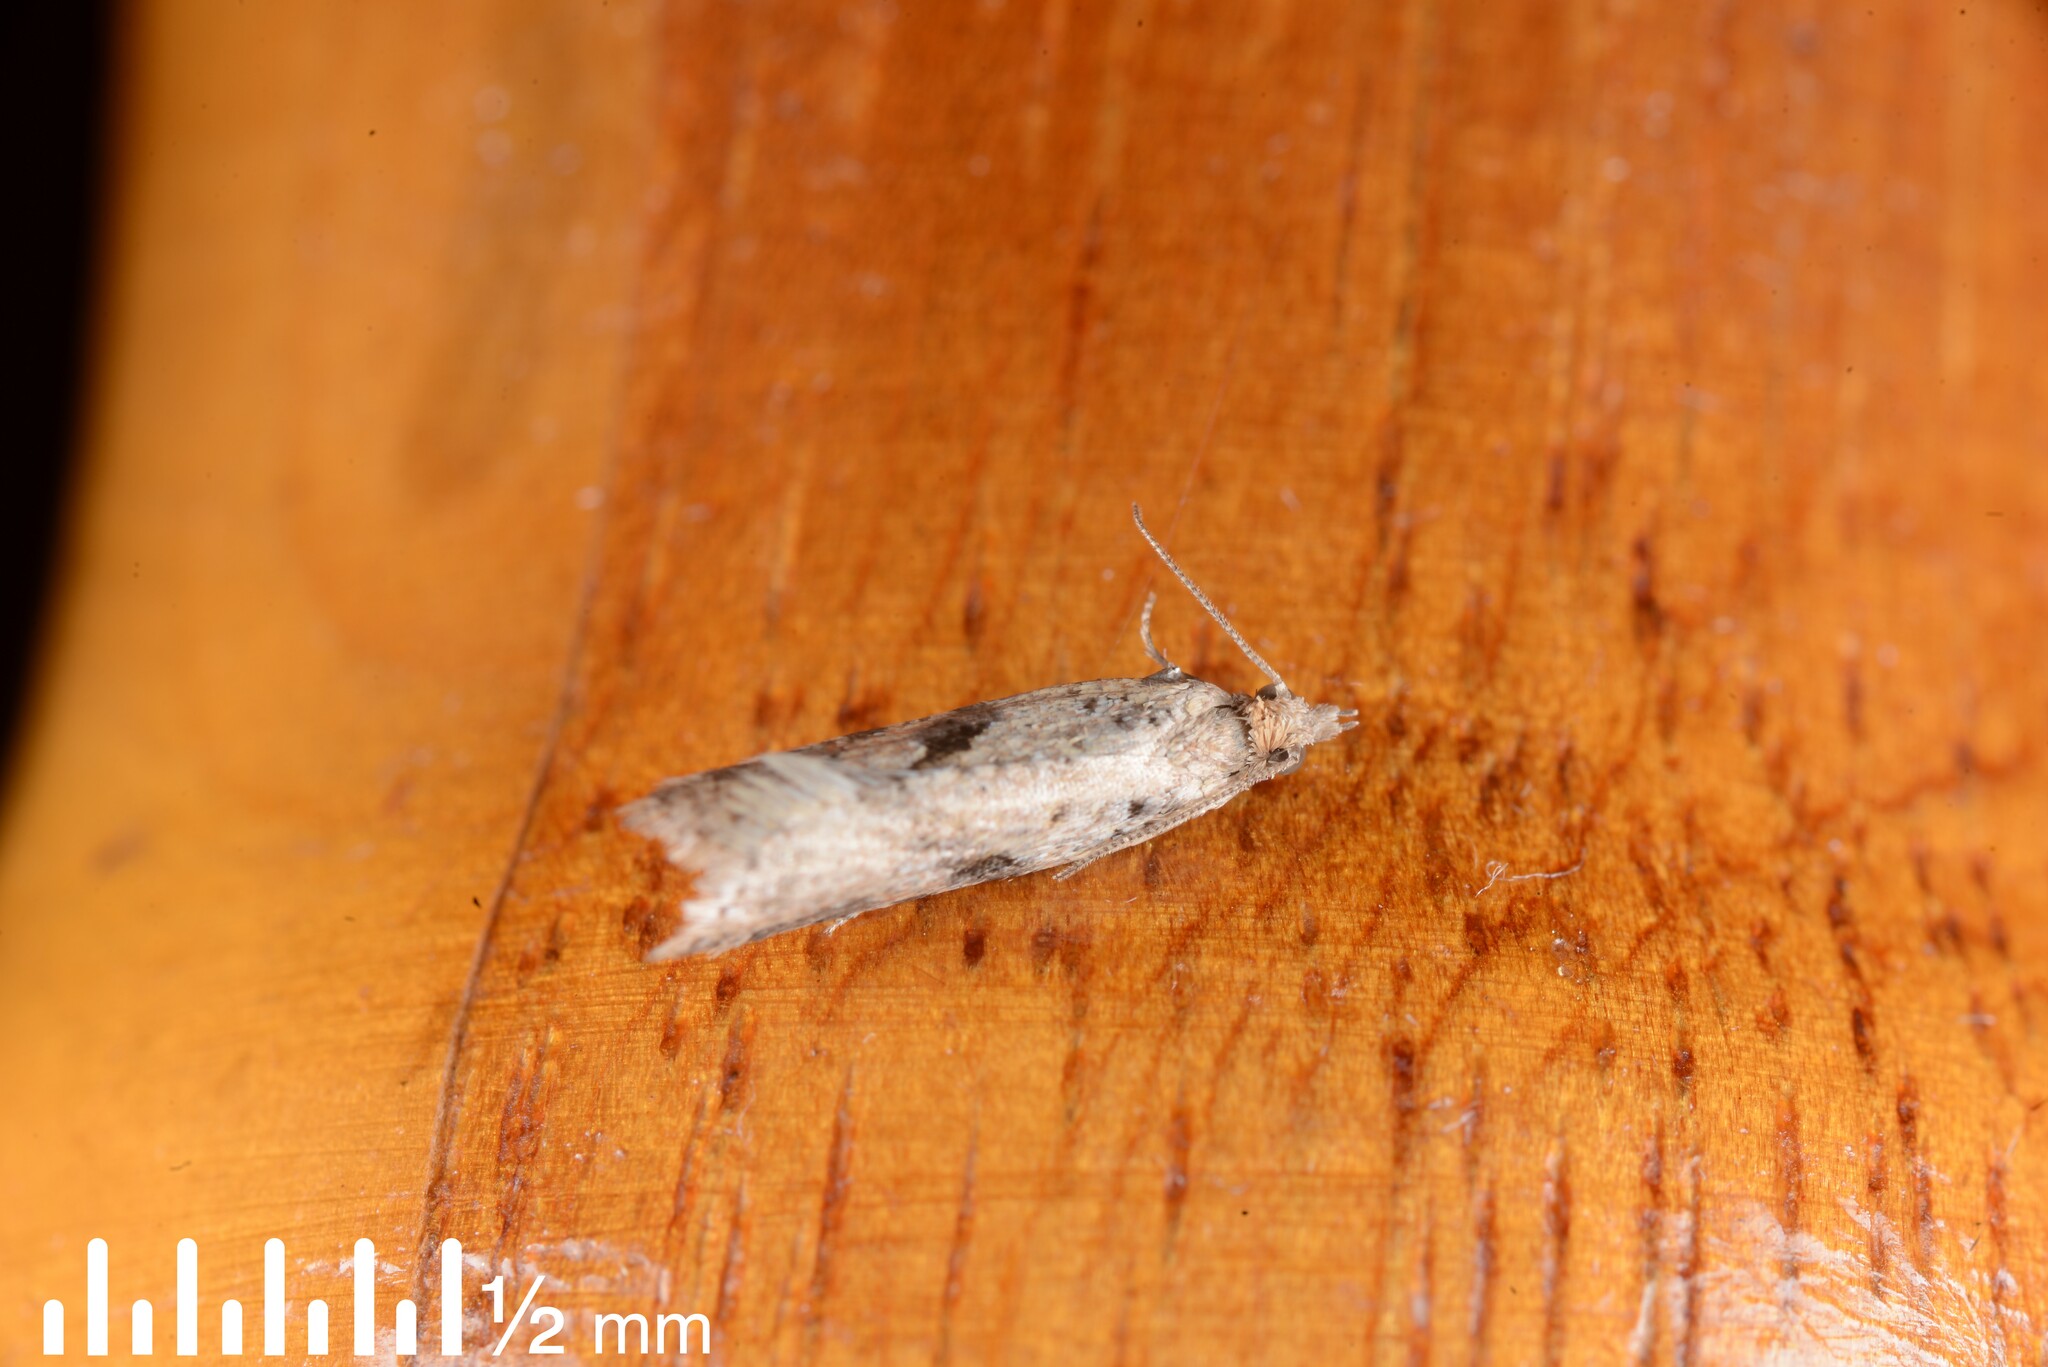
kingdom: Animalia
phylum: Arthropoda
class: Insecta
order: Lepidoptera
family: Tortricidae
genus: Capua
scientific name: Capua semiferana
